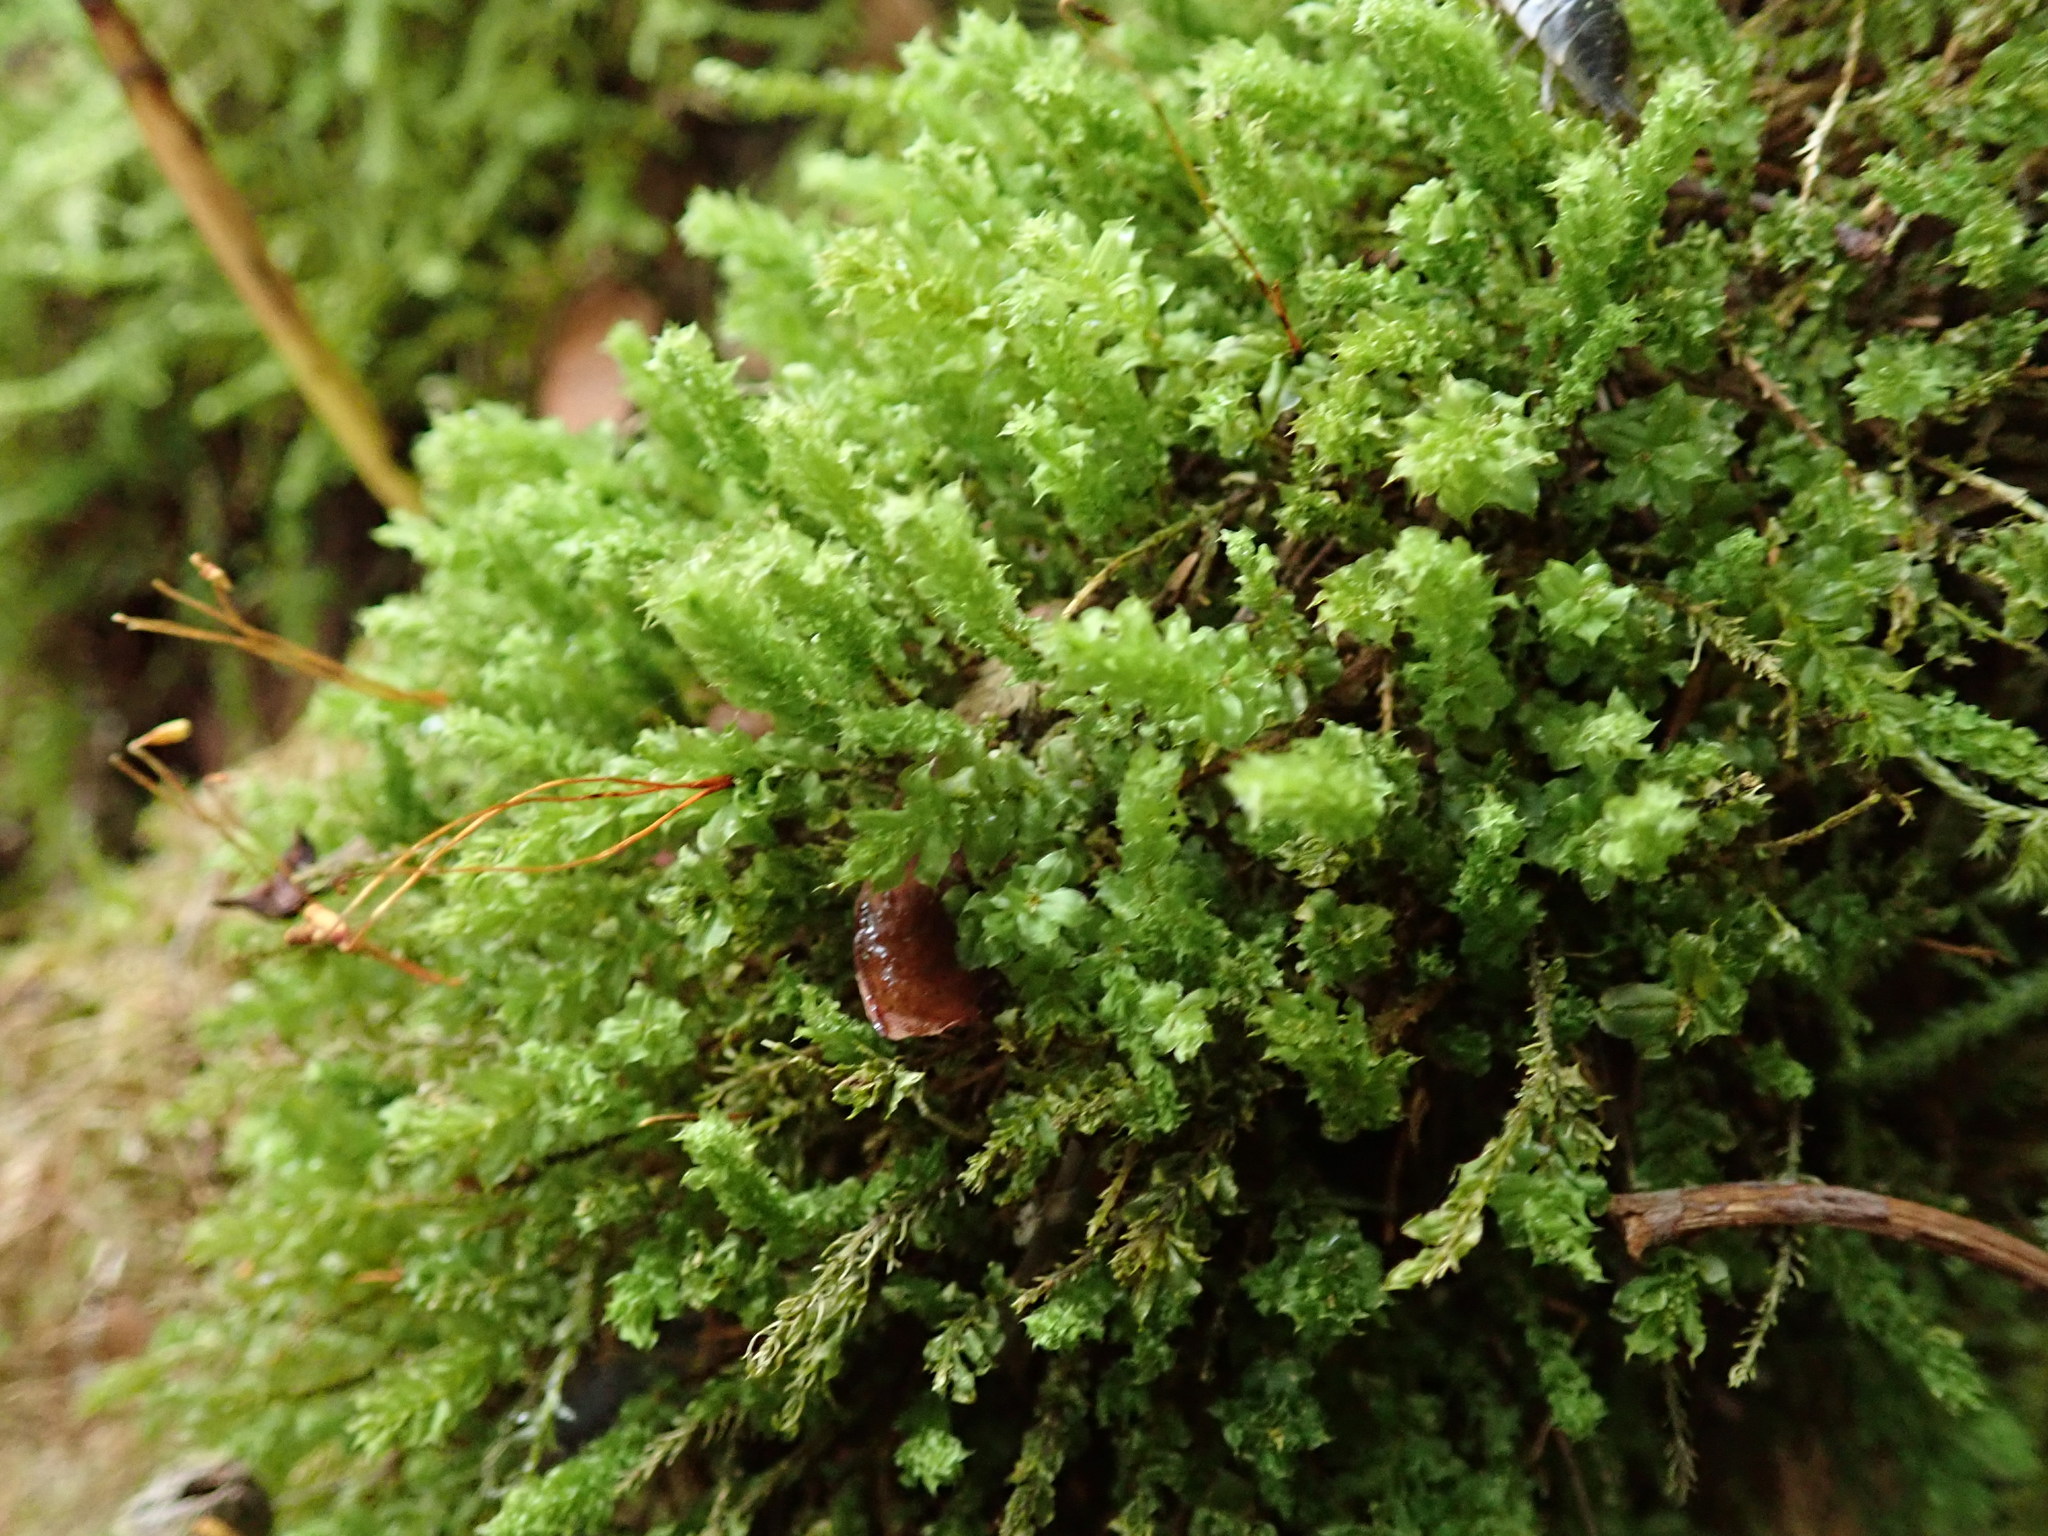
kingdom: Plantae
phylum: Bryophyta
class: Bryopsida
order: Bryales
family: Mniaceae
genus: Plagiomnium
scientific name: Plagiomnium venustum
